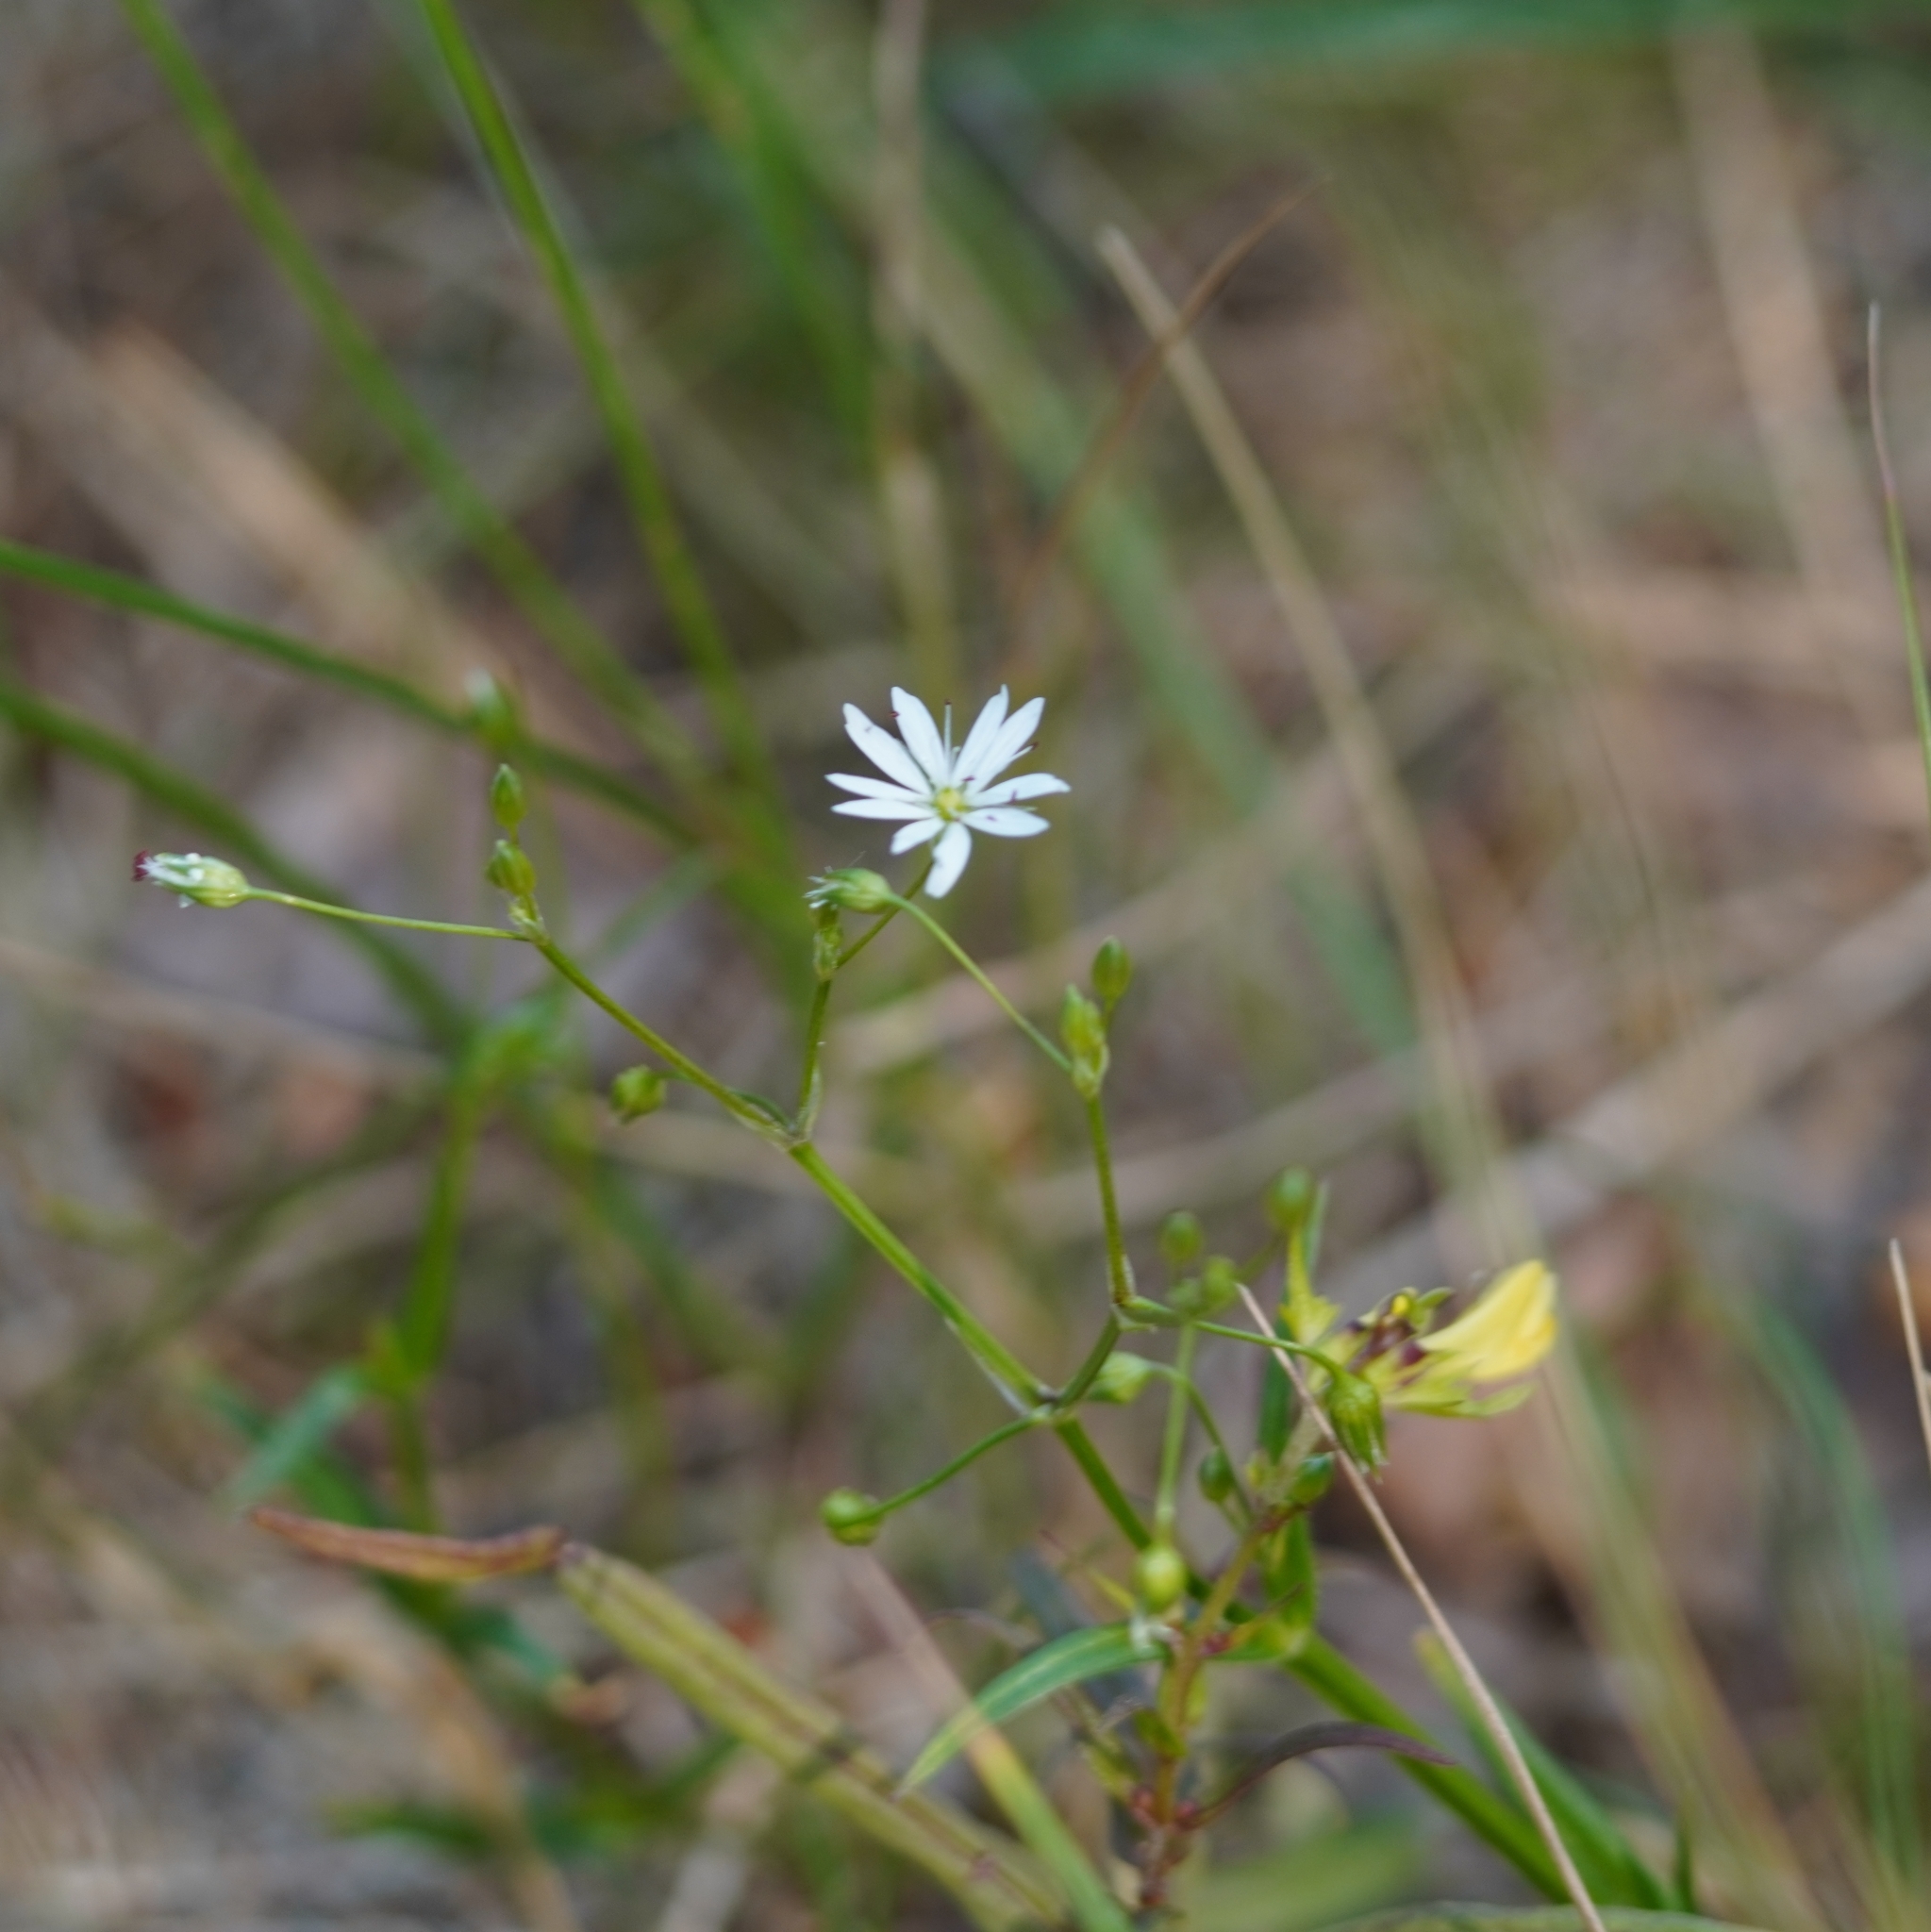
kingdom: Plantae
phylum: Tracheophyta
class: Magnoliopsida
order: Caryophyllales
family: Caryophyllaceae
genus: Stellaria
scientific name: Stellaria graminea
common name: Grass-like starwort
